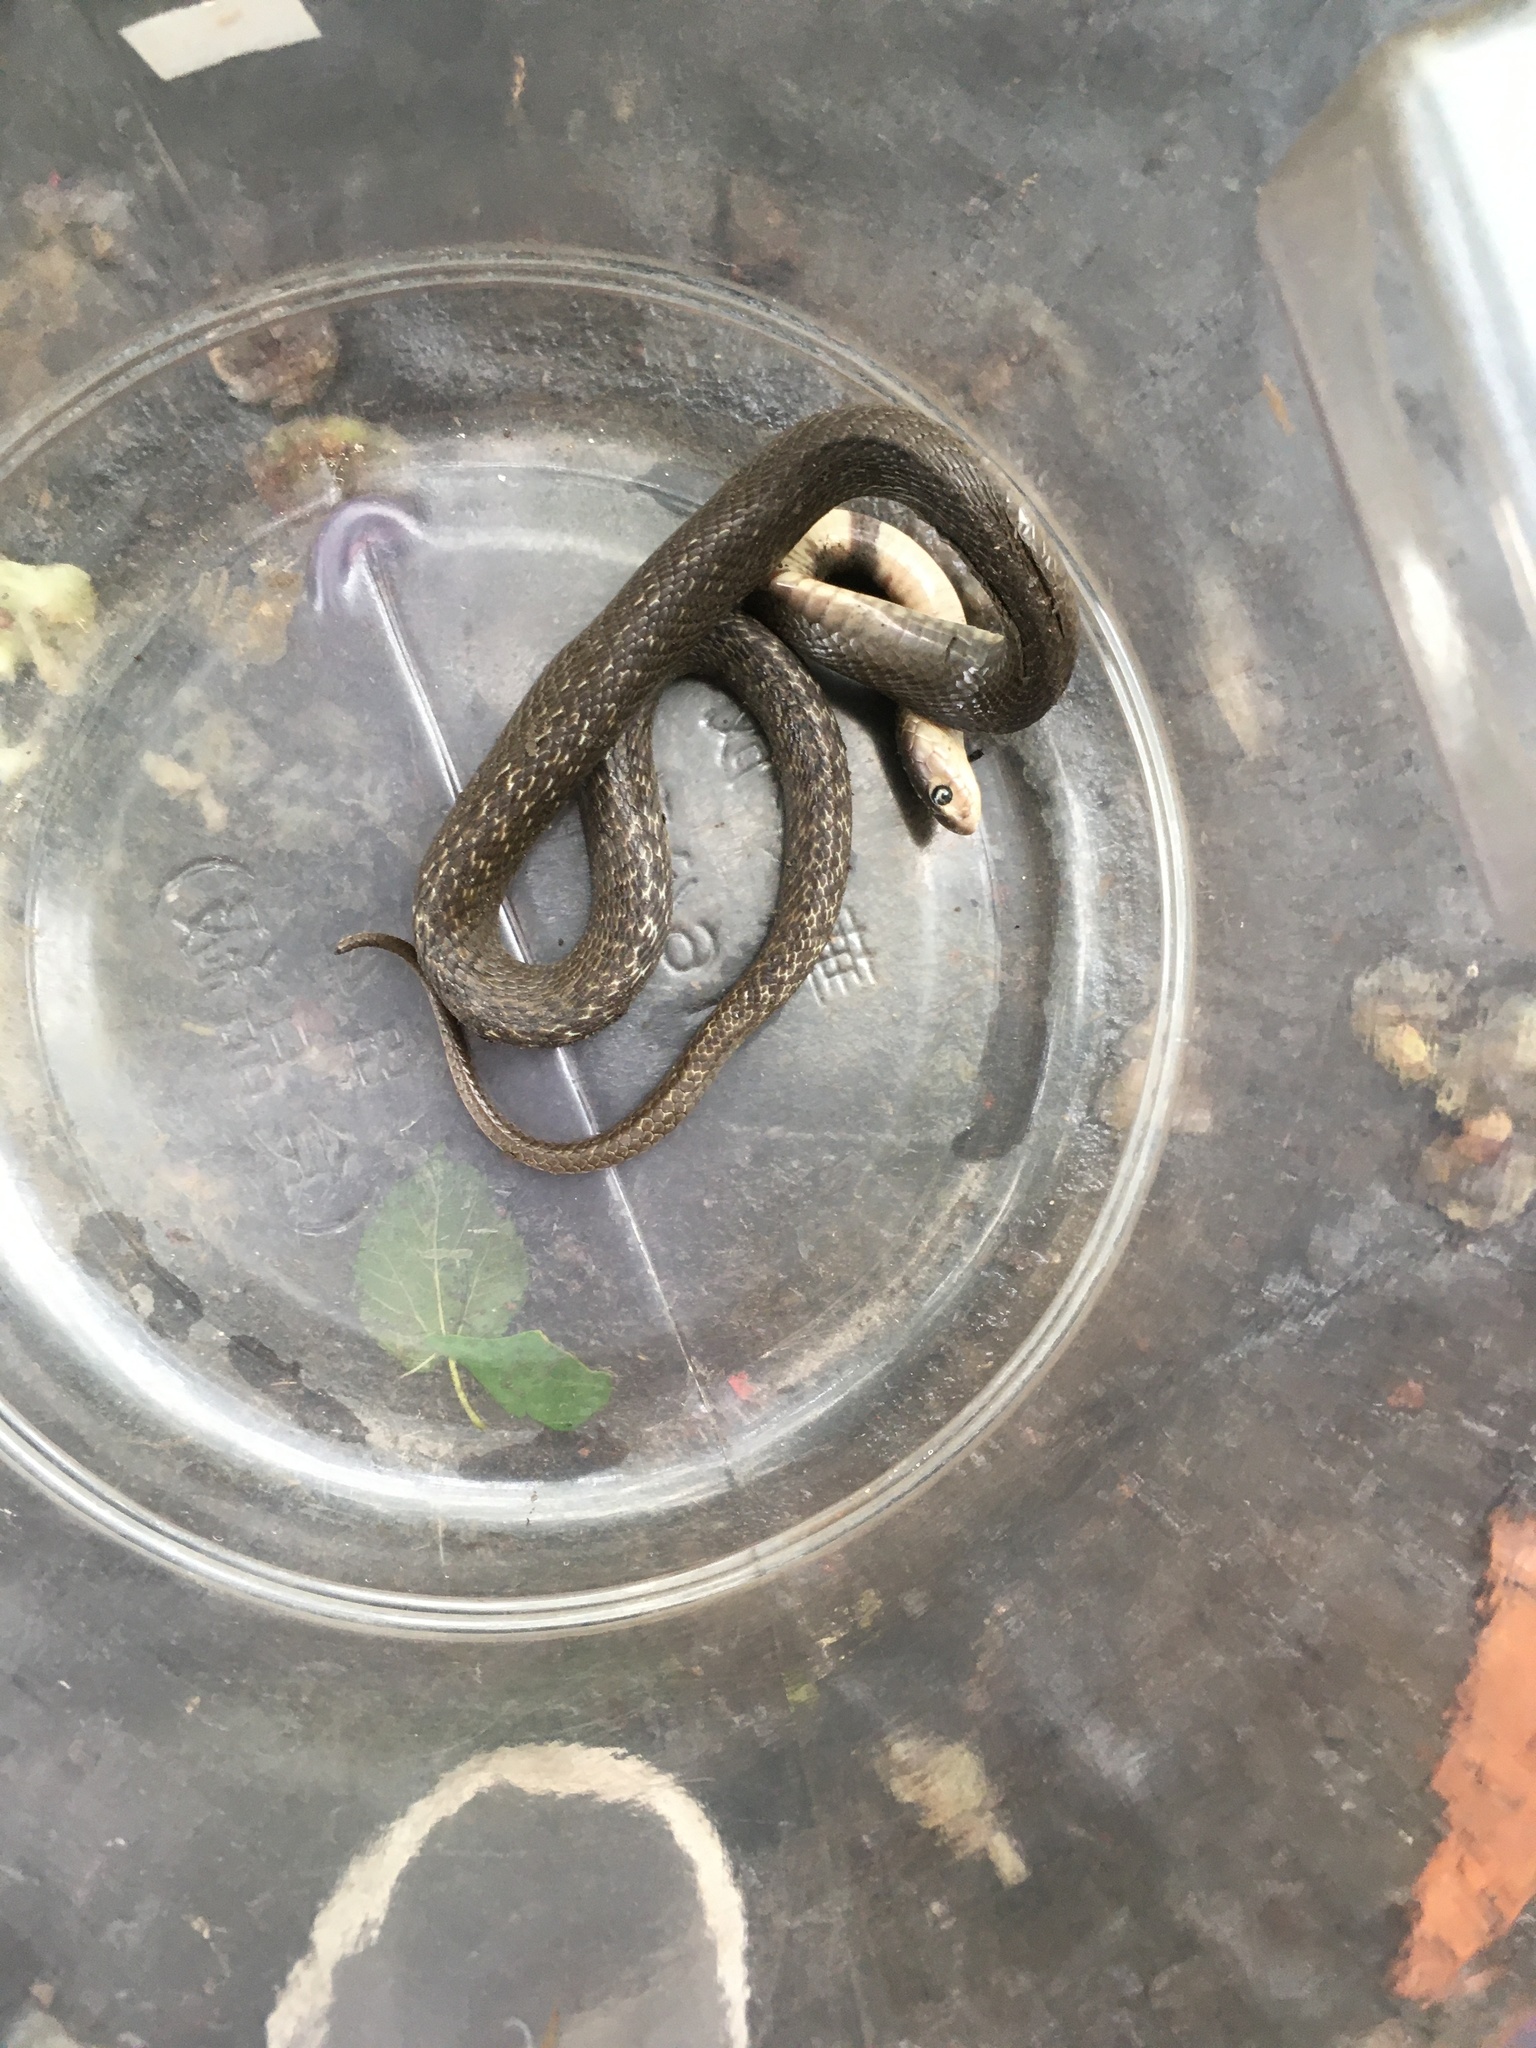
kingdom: Animalia
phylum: Chordata
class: Squamata
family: Elapidae
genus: Naja
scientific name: Naja atra
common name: Chinese cobra
